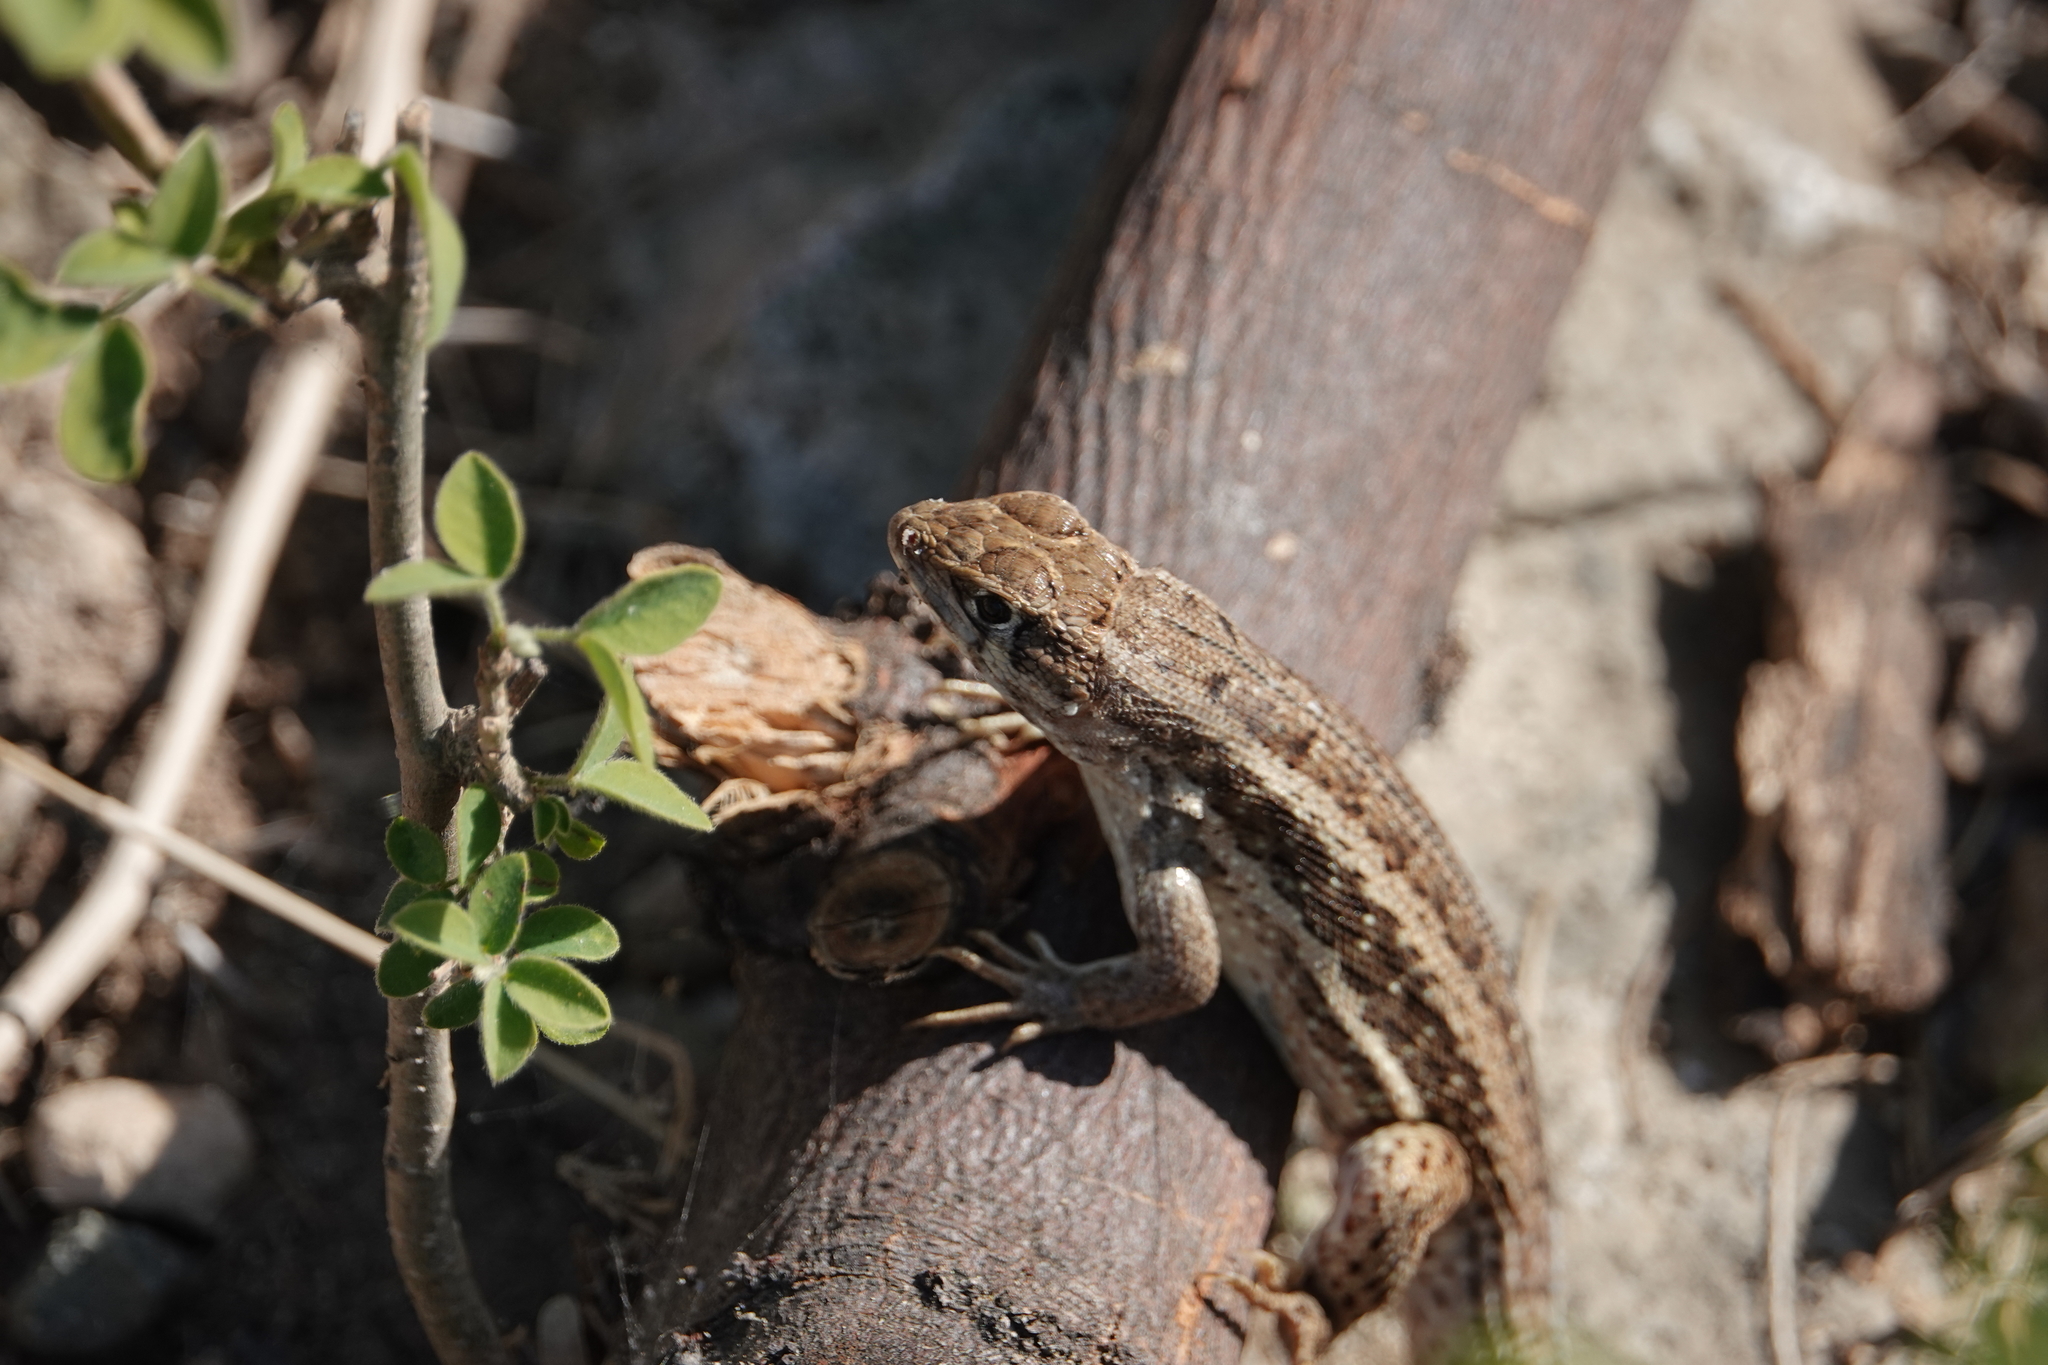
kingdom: Animalia
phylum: Chordata
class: Squamata
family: Leiocephalidae
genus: Leiocephalus
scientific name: Leiocephalus raviceps
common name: Mountain curlytail lizard
